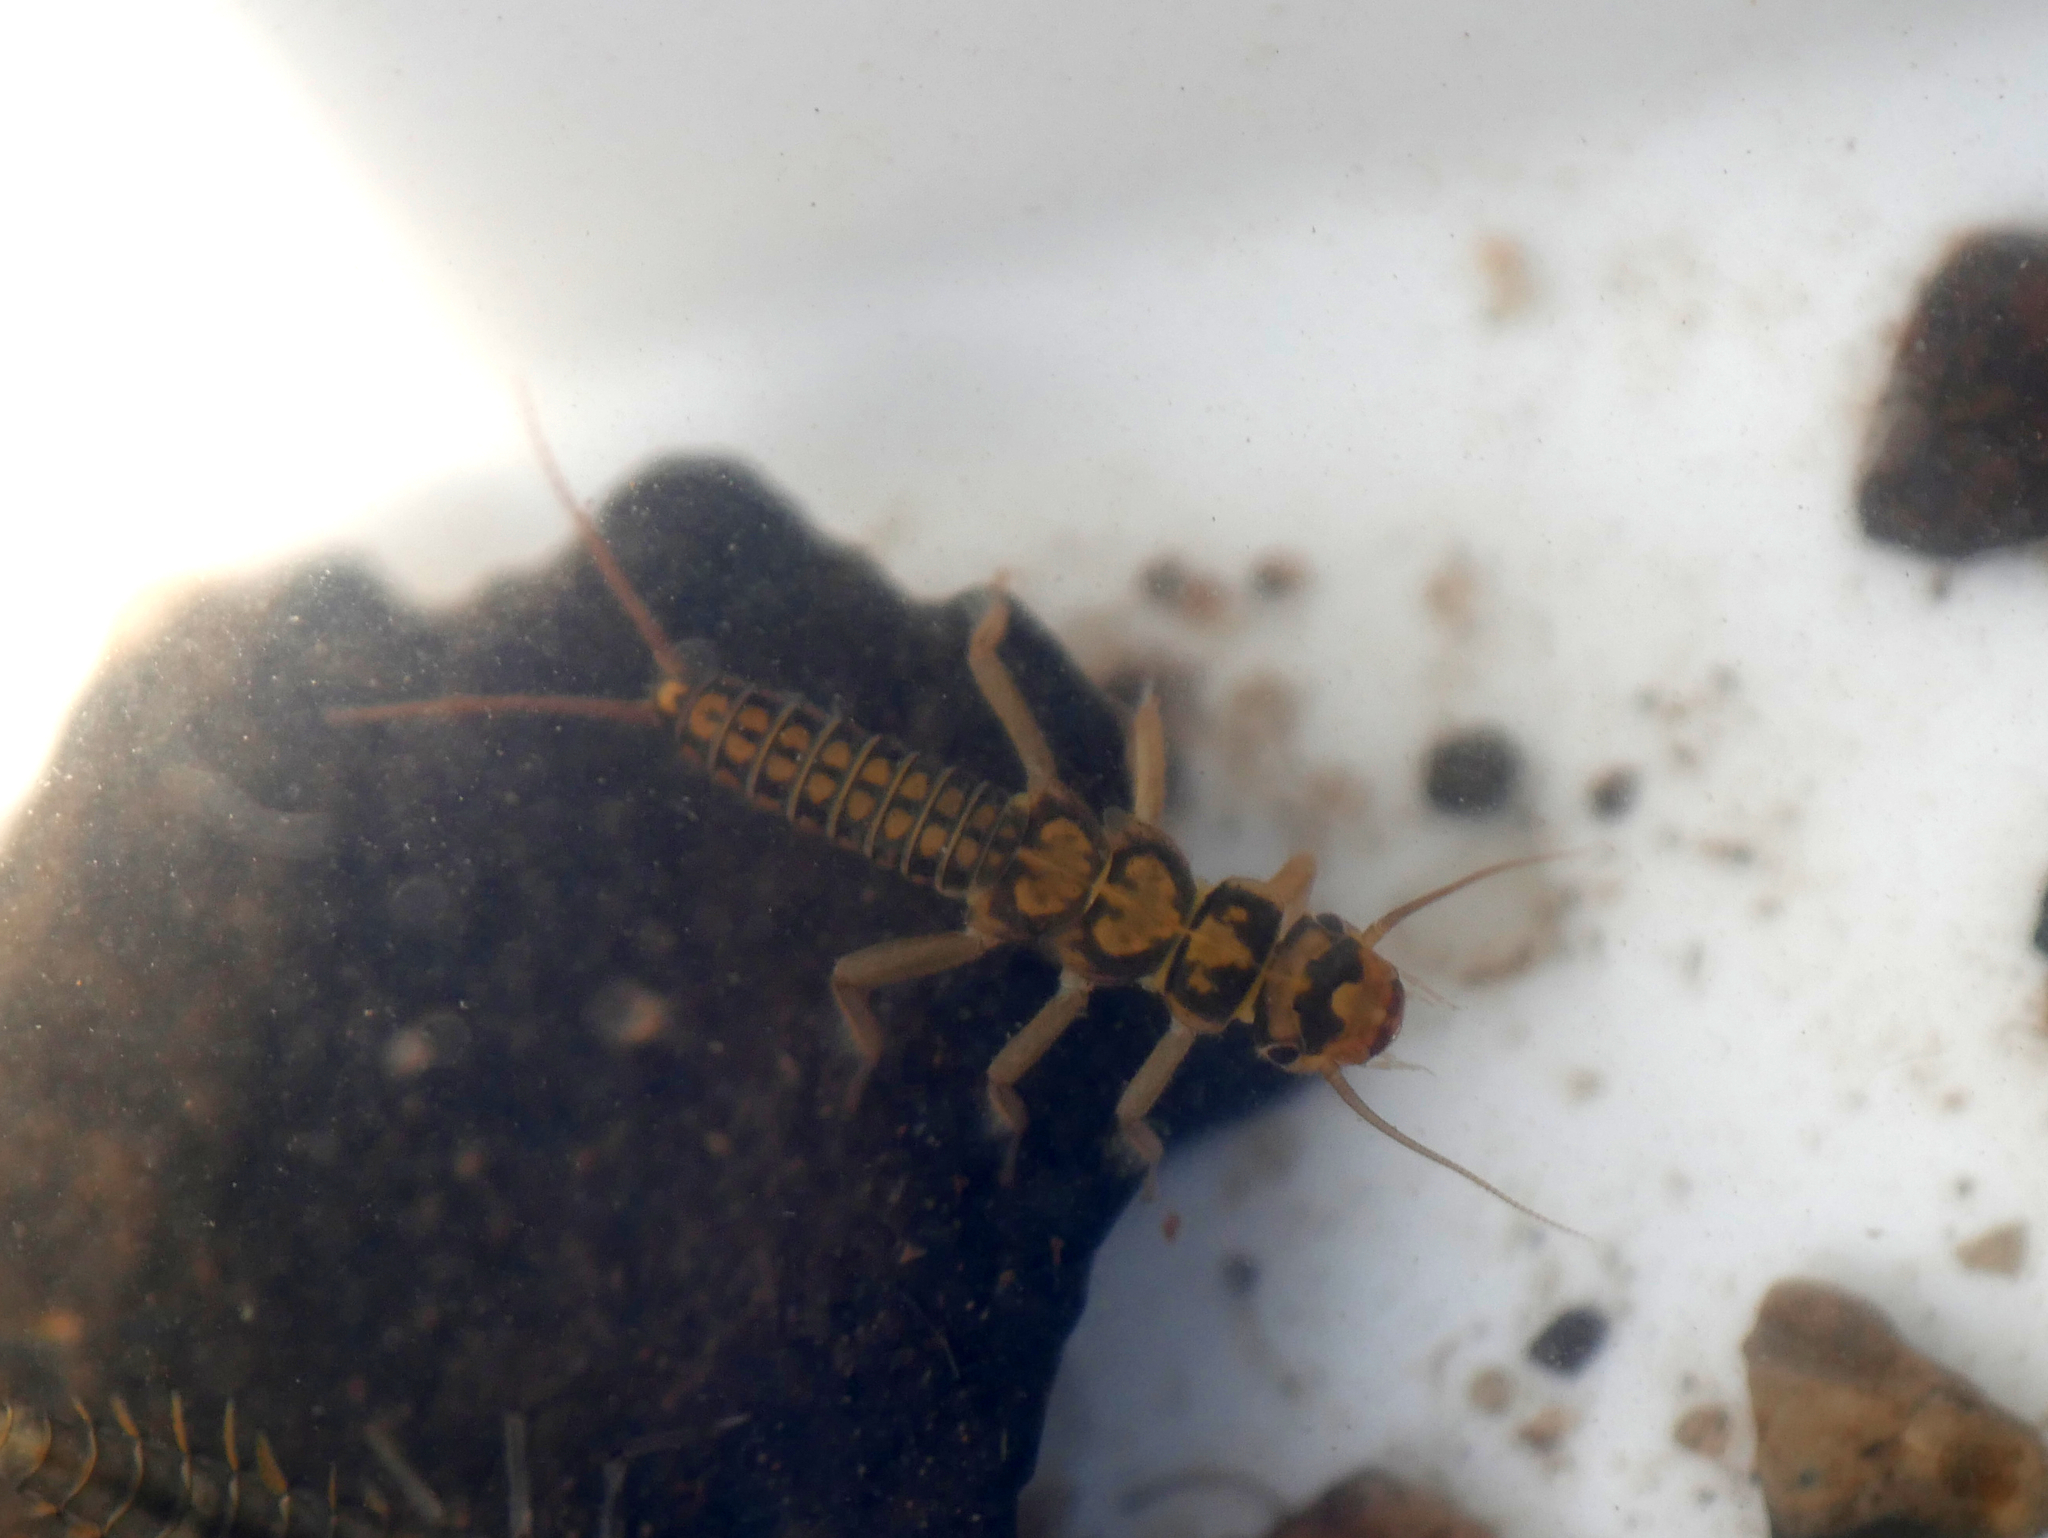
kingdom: Animalia
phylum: Arthropoda
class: Insecta
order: Plecoptera
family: Perlodidae
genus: Isoperla
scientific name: Isoperla difformis
